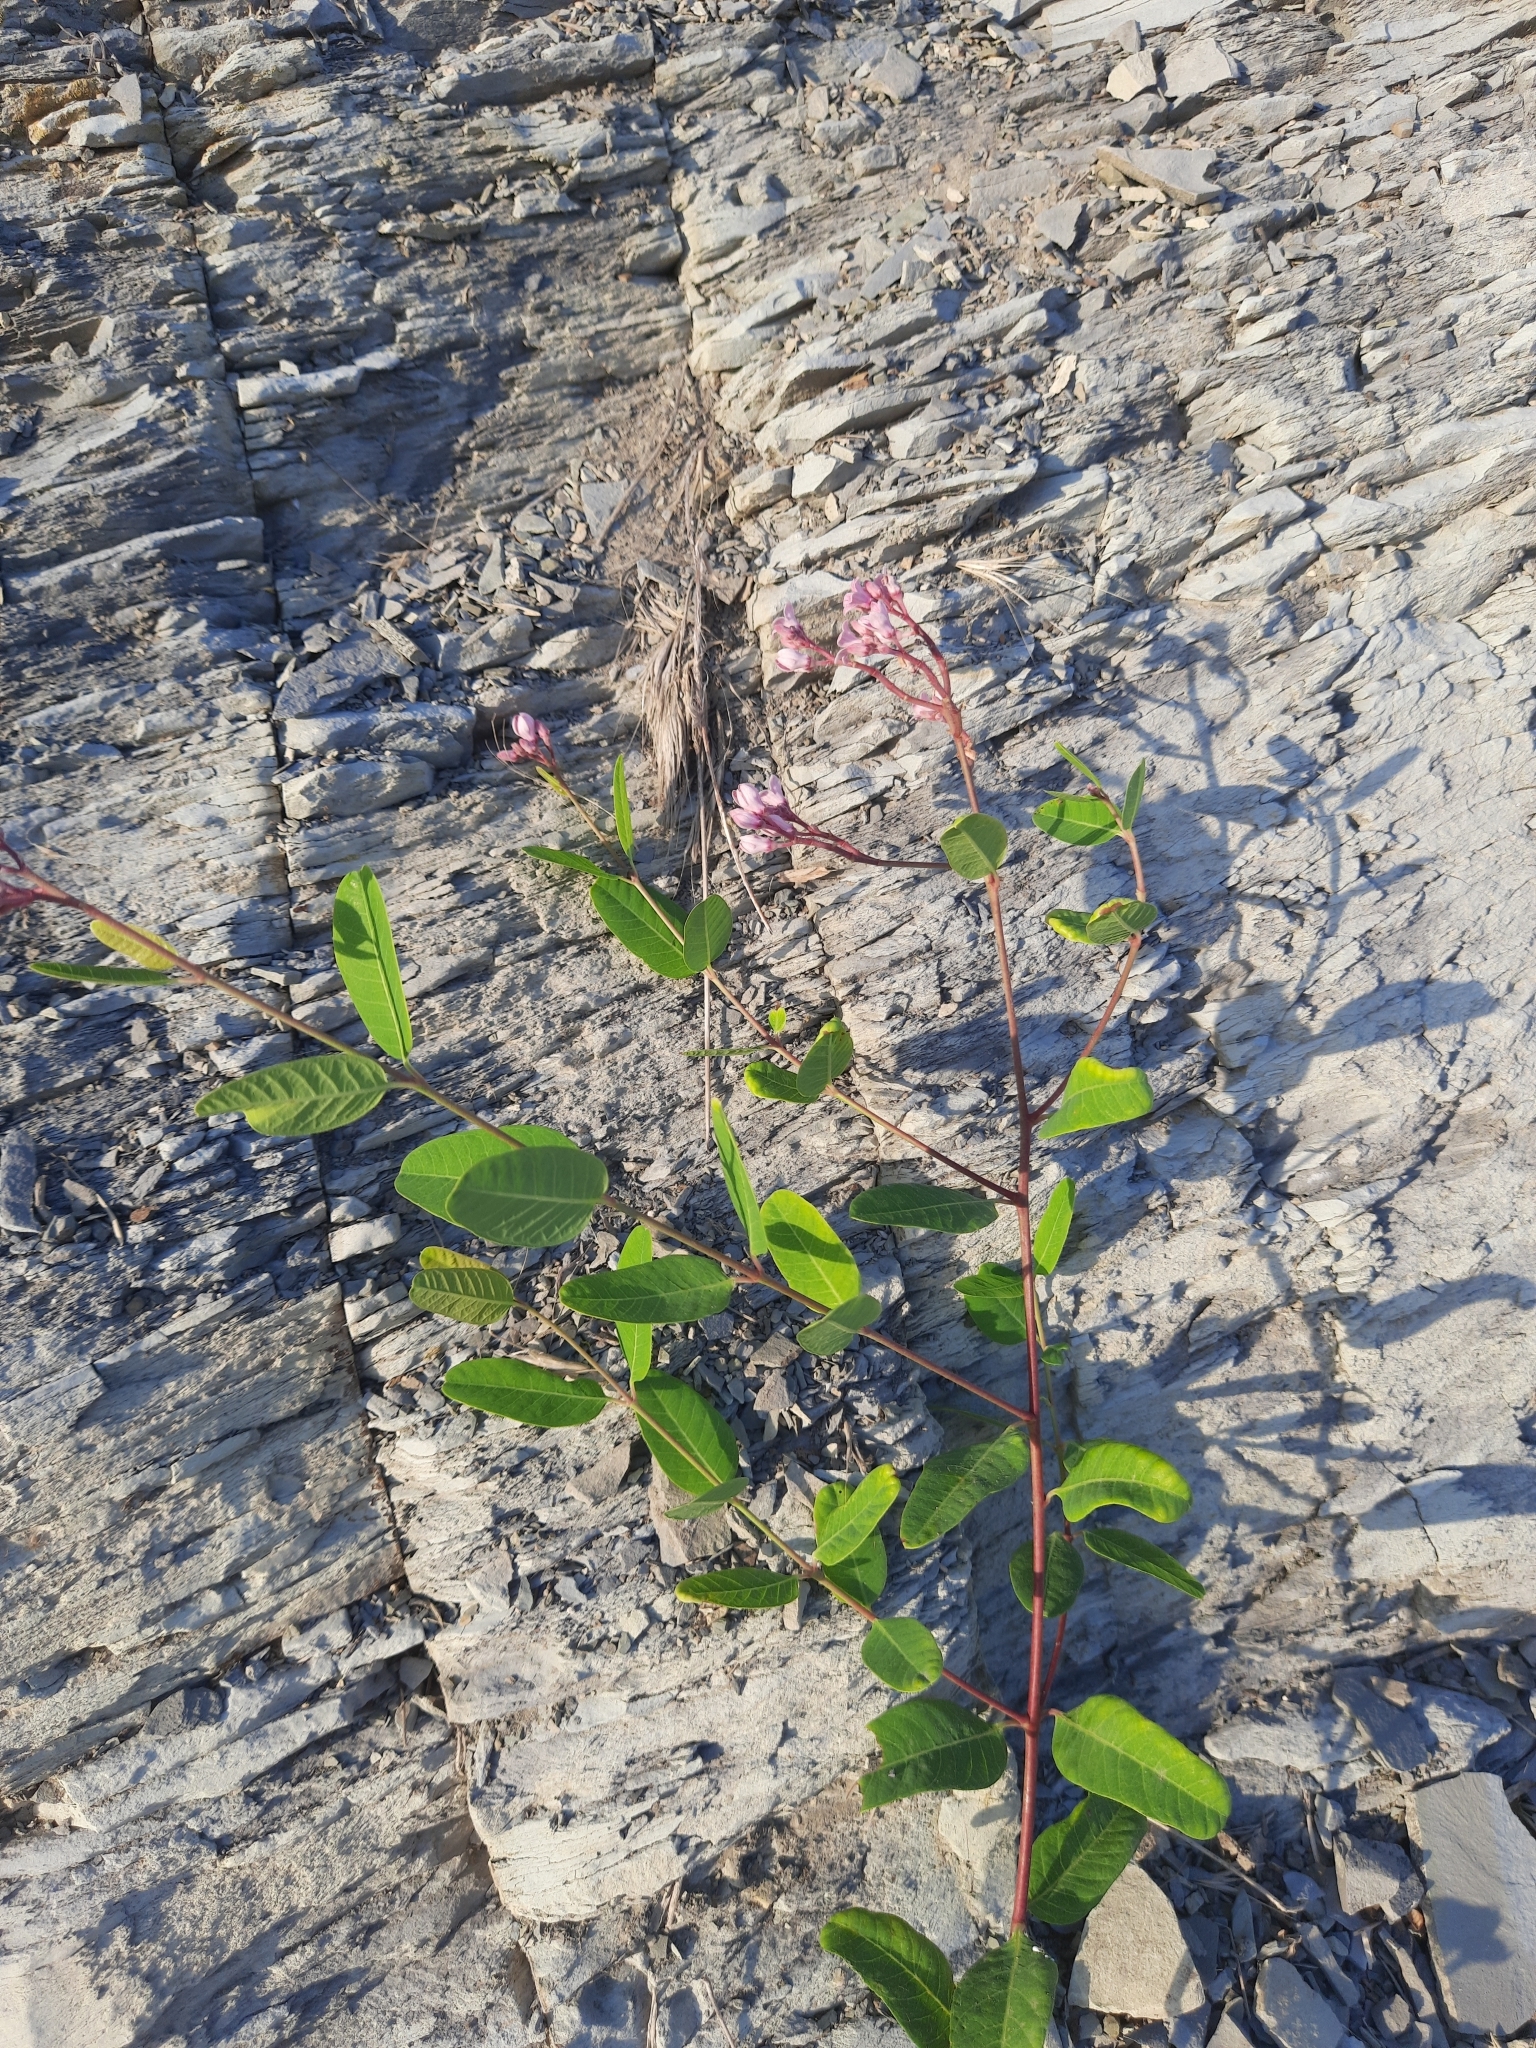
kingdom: Plantae
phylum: Tracheophyta
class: Magnoliopsida
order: Gentianales
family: Apocynaceae
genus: Poacynum
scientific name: Poacynum venetum
